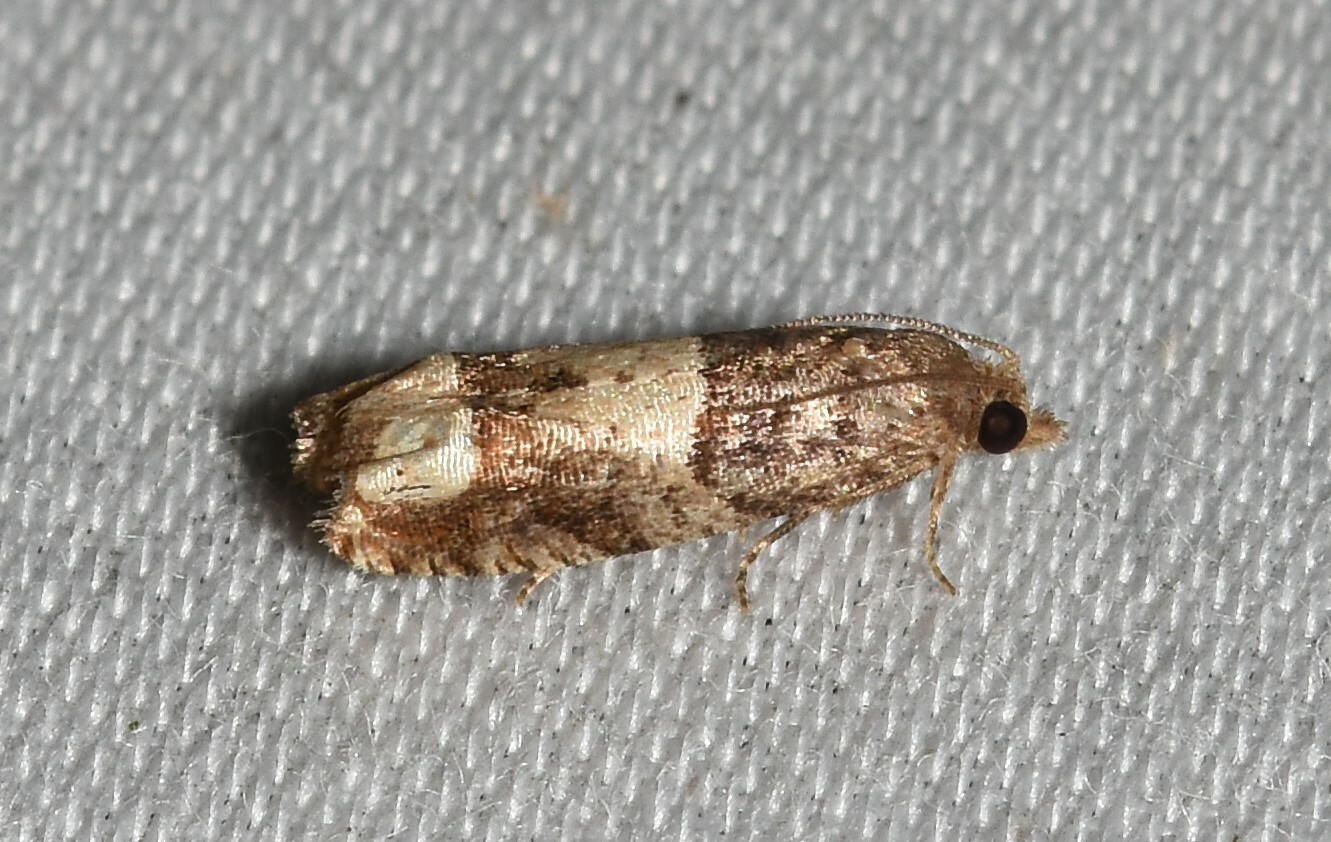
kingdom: Animalia
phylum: Arthropoda
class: Insecta
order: Lepidoptera
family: Tortricidae
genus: Eucosma
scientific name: Eucosma parmatana
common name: Aster eucosma moth
